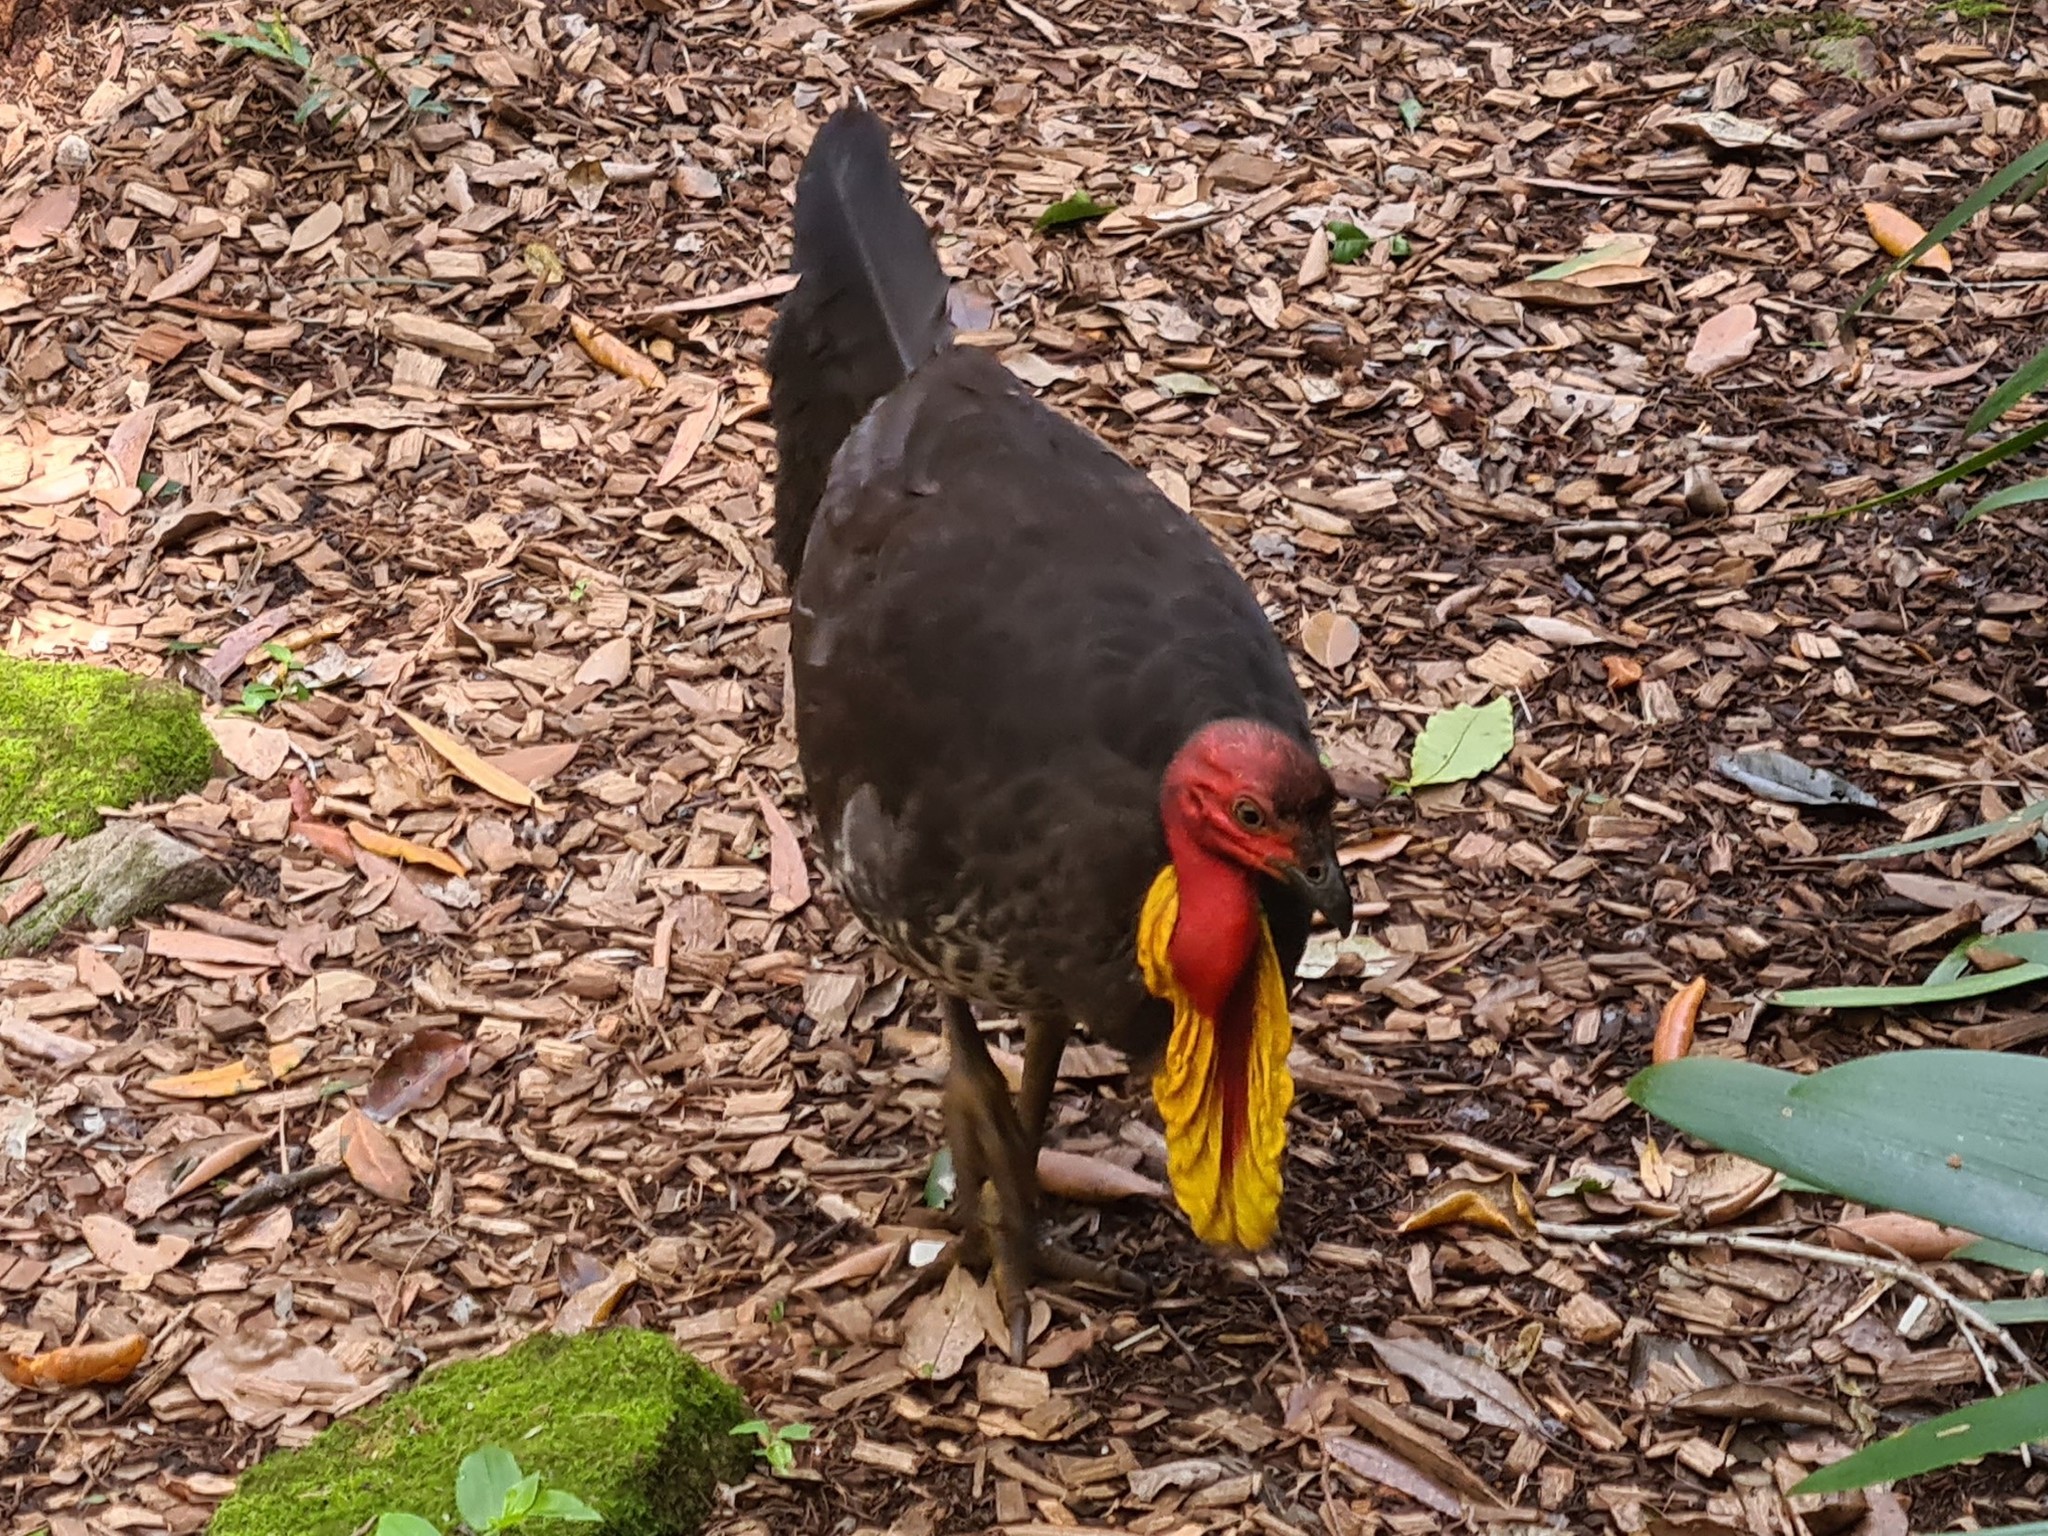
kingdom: Animalia
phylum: Chordata
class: Aves
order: Galliformes
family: Megapodiidae
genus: Alectura
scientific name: Alectura lathami
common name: Australian brushturkey
